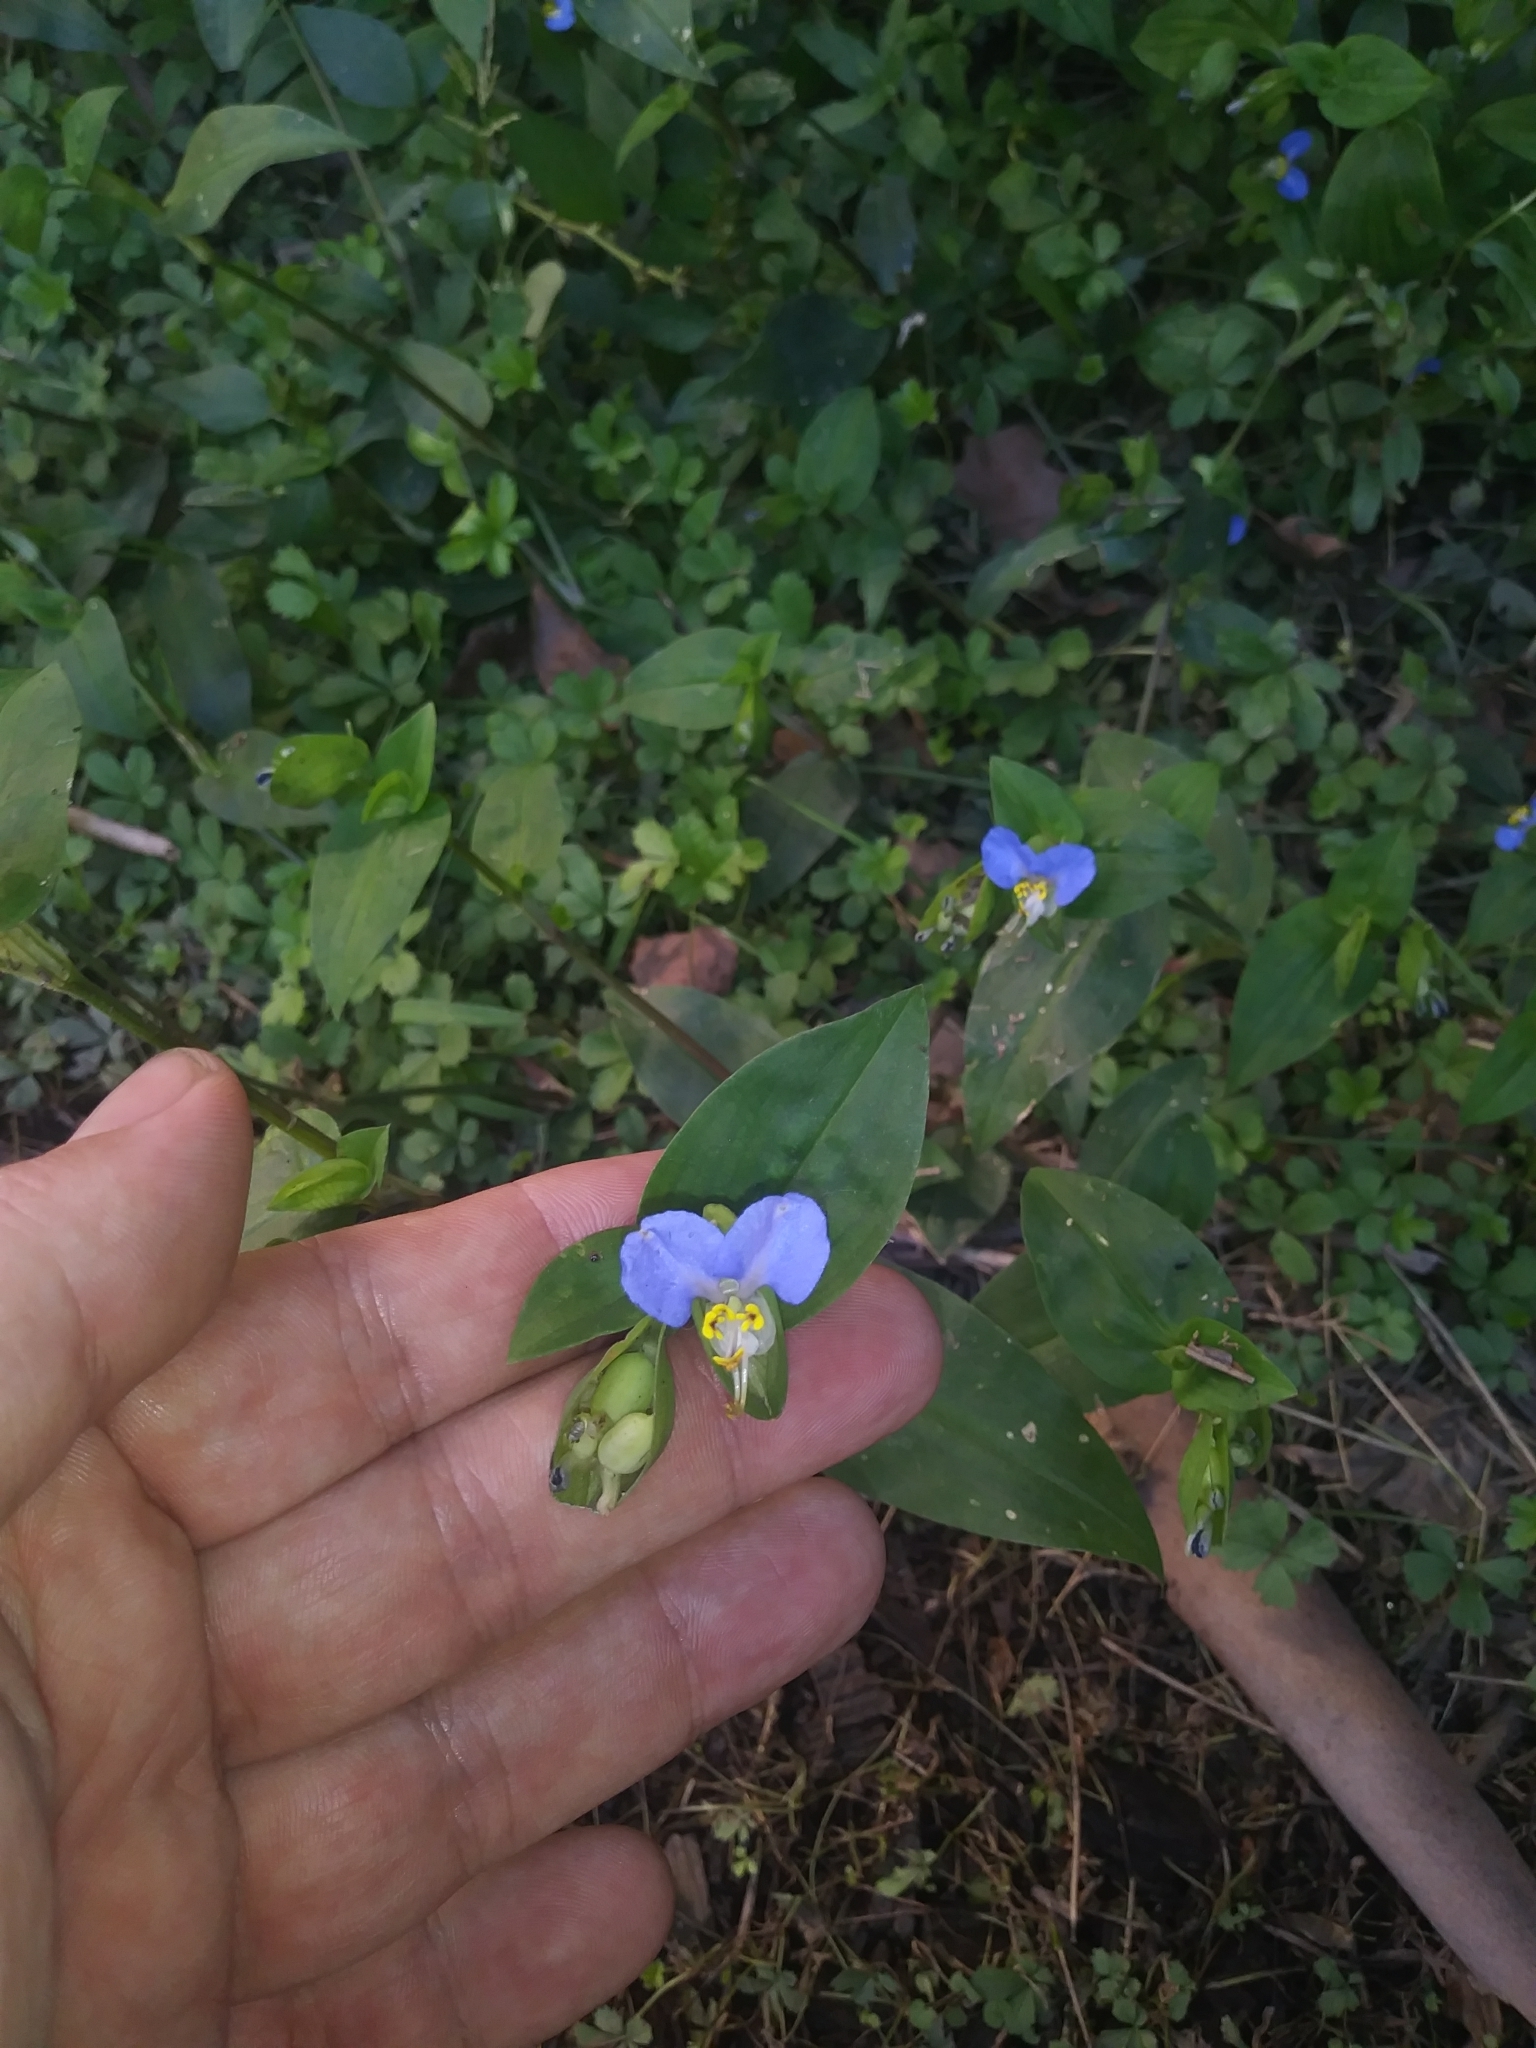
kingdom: Plantae
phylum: Tracheophyta
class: Liliopsida
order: Commelinales
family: Commelinaceae
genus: Commelina
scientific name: Commelina communis
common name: Asiatic dayflower
